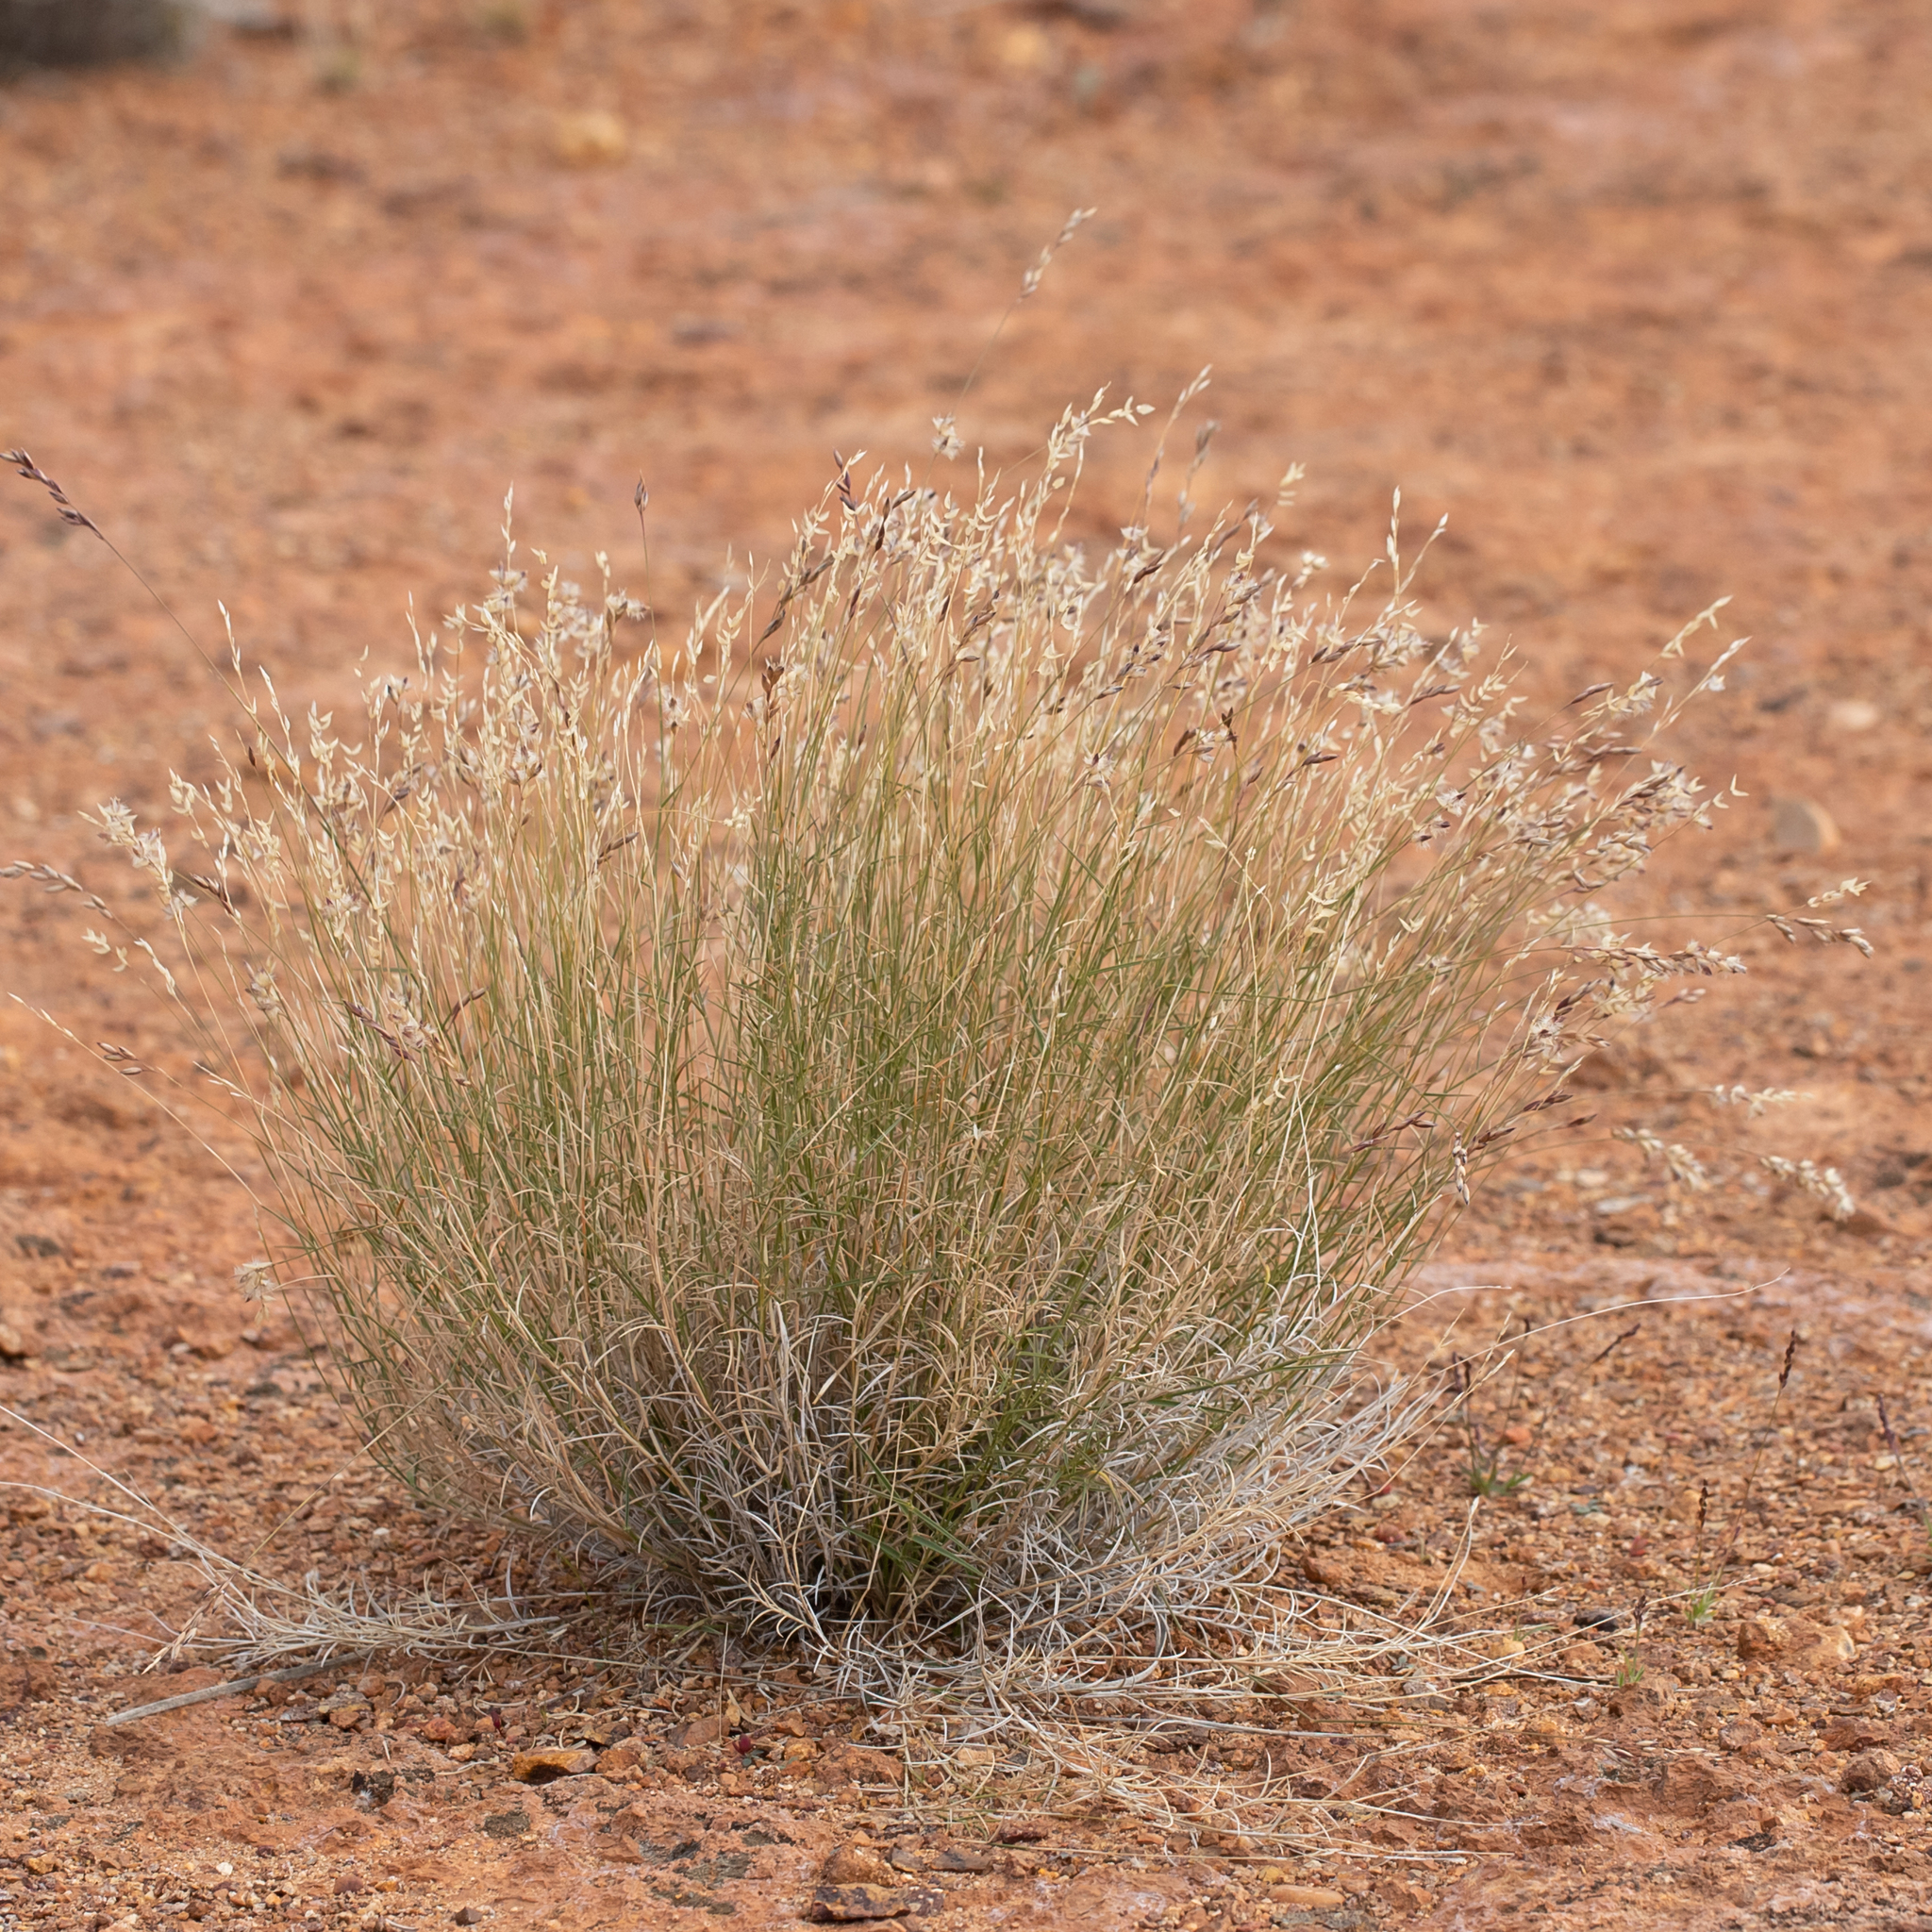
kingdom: Plantae
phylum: Tracheophyta
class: Liliopsida
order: Poales
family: Poaceae
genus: Eriachne
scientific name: Eriachne mucronata
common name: Mountain wanderrie grass
